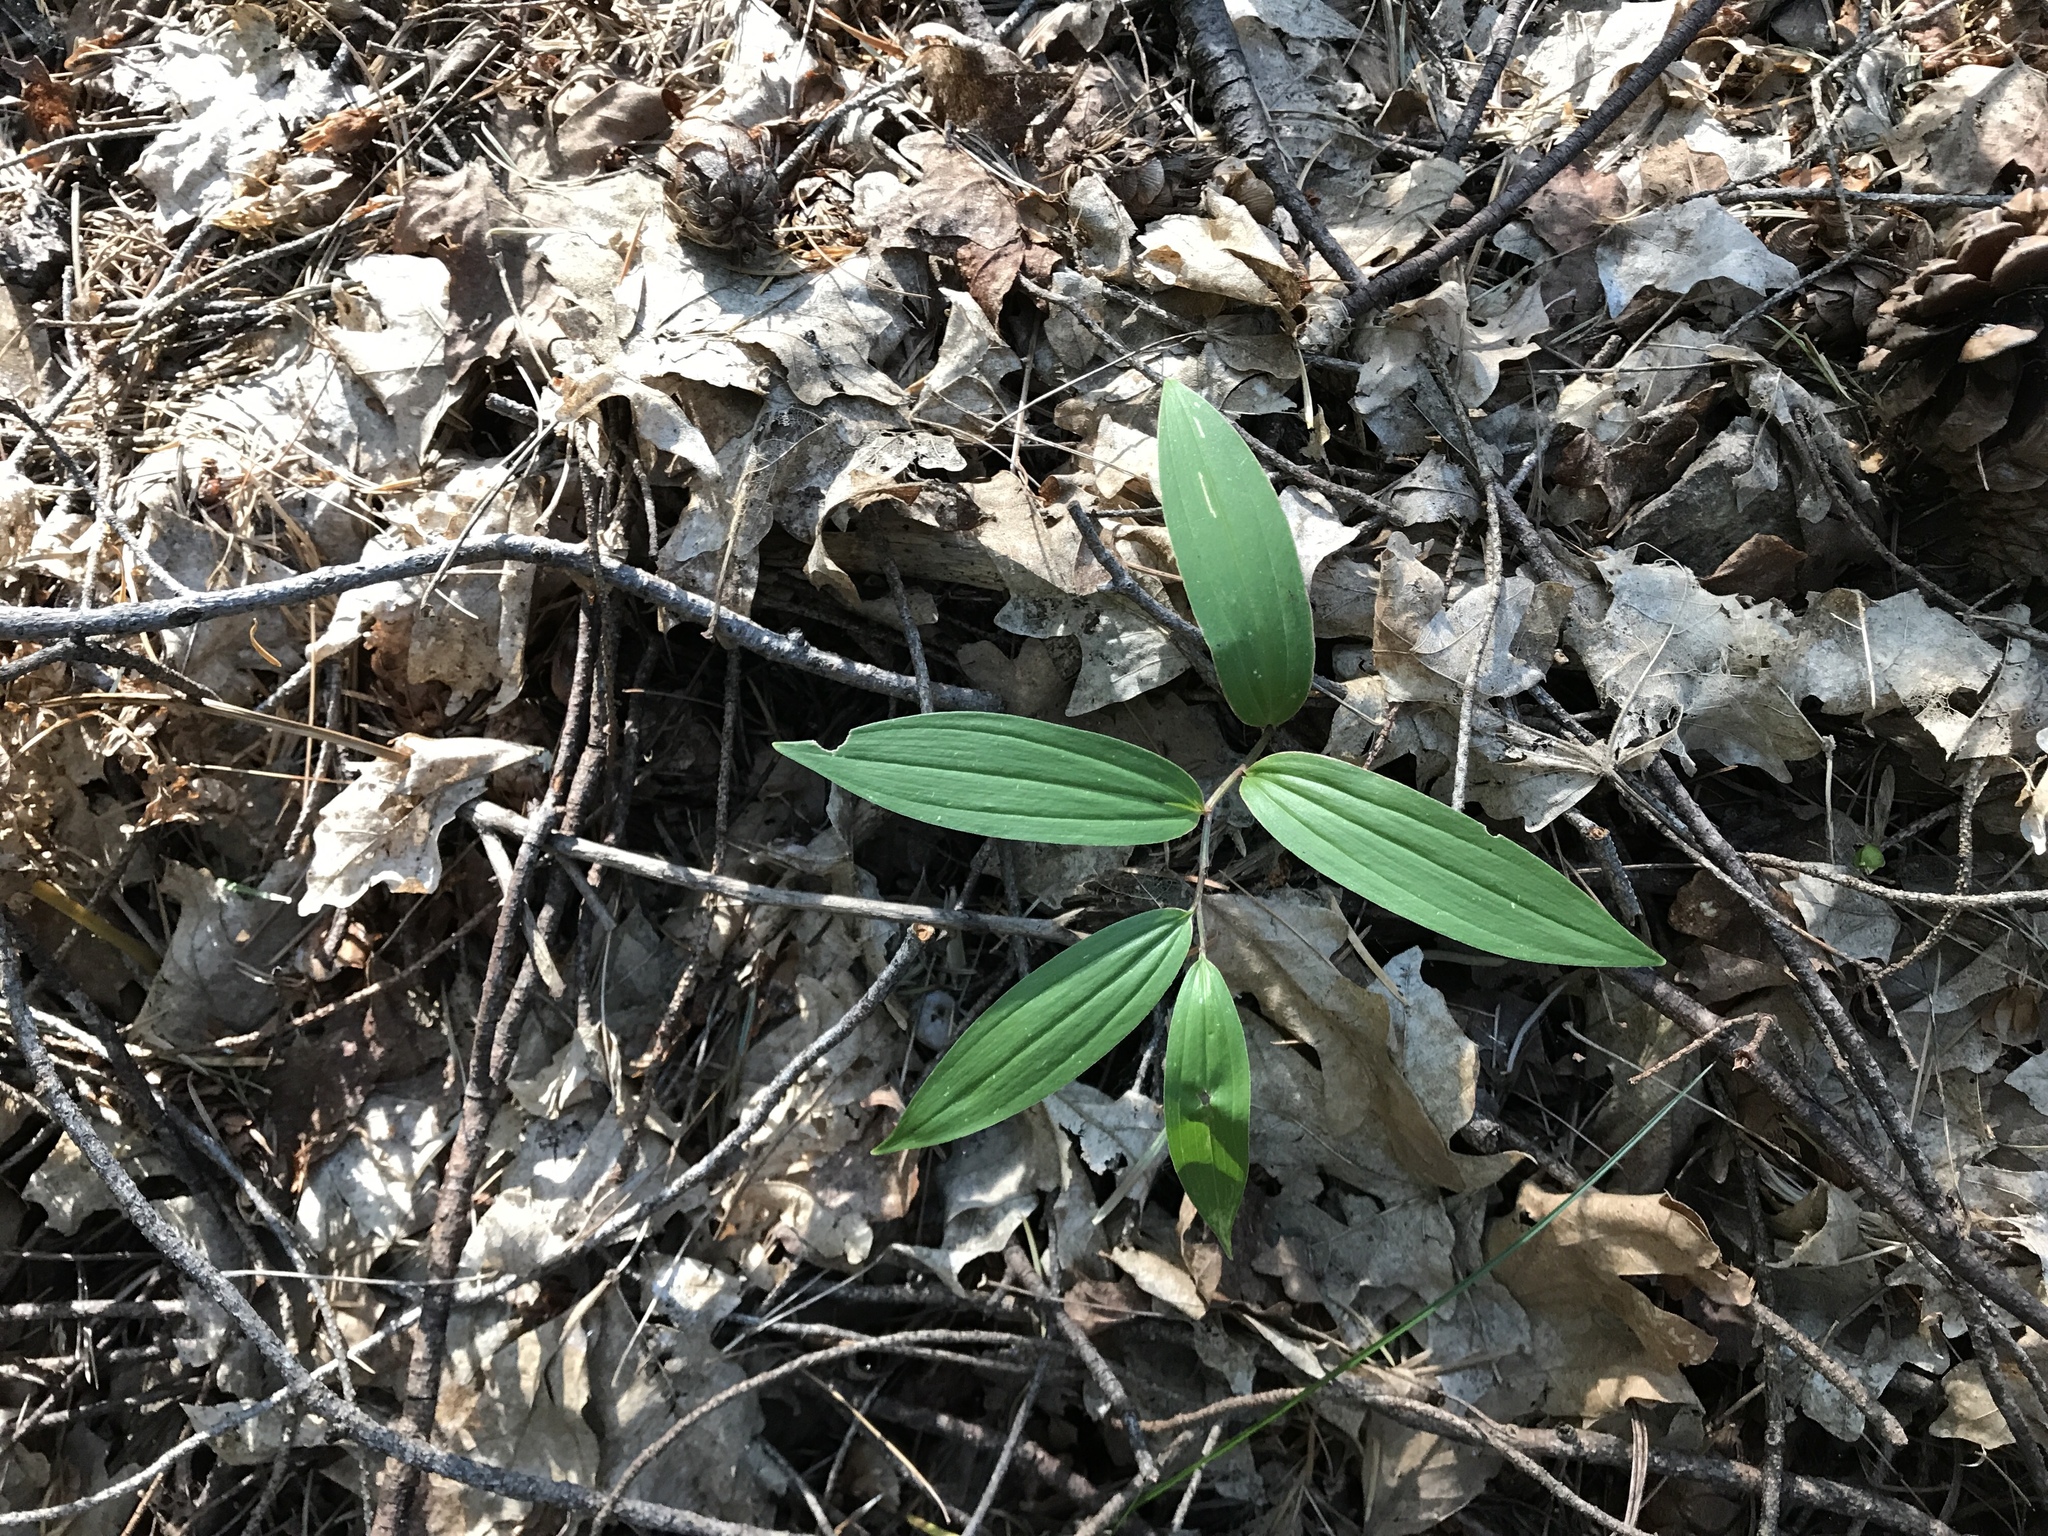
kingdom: Plantae
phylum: Tracheophyta
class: Liliopsida
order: Asparagales
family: Asparagaceae
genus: Maianthemum
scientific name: Maianthemum racemosum
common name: False spikenard
